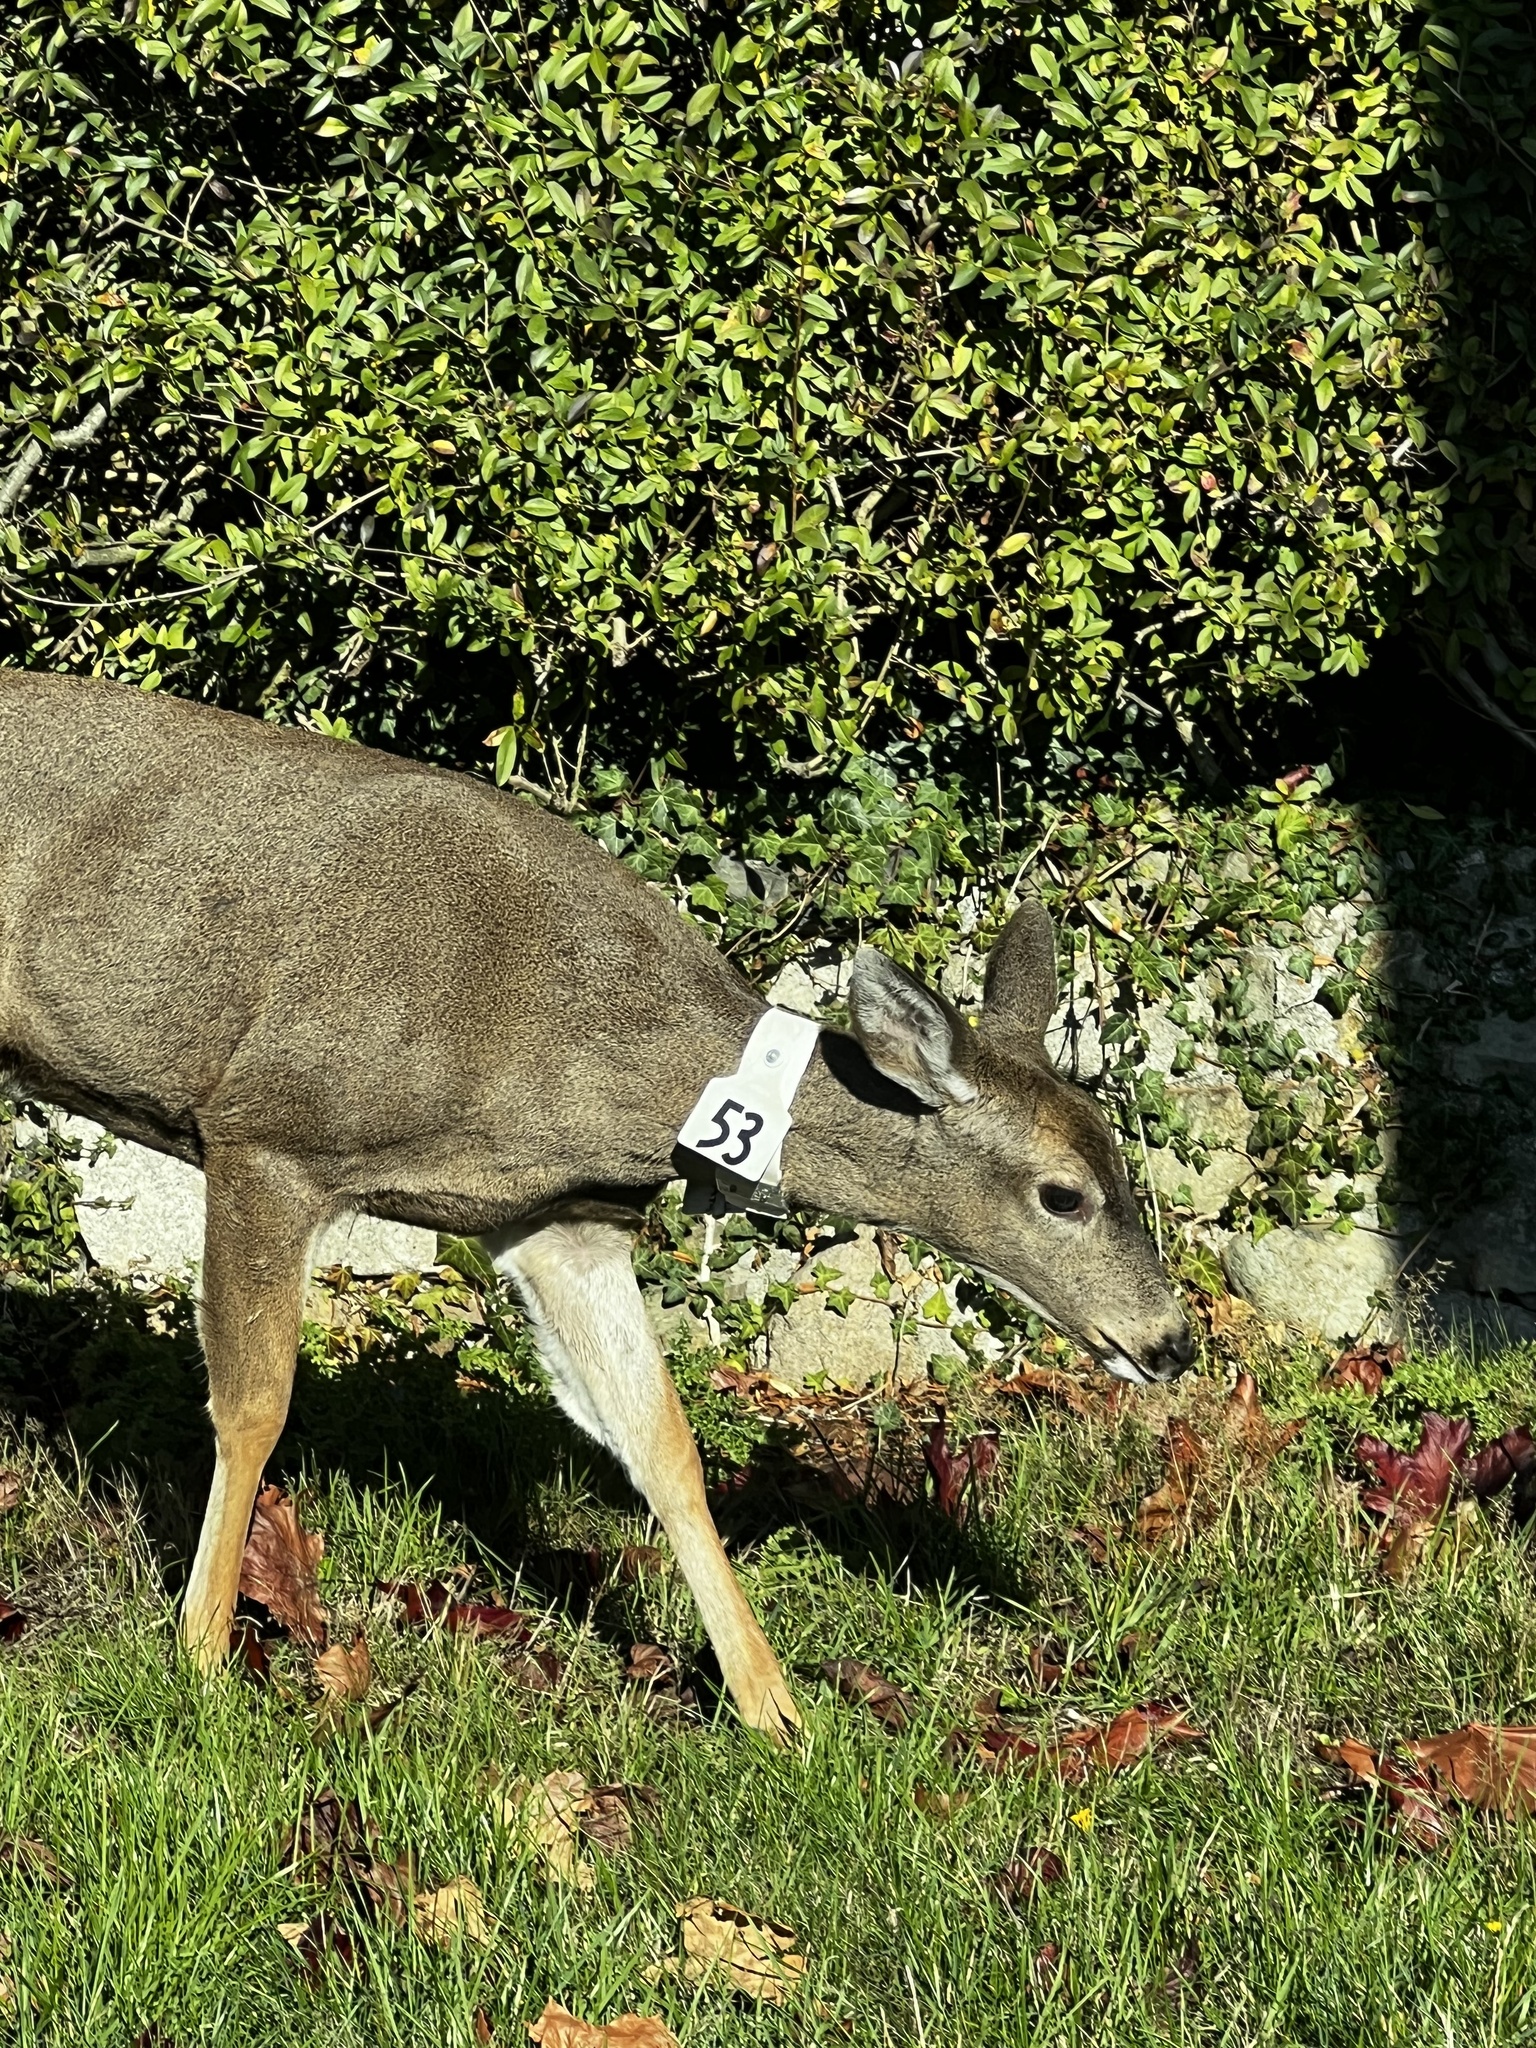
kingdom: Animalia
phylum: Chordata
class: Mammalia
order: Artiodactyla
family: Cervidae
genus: Odocoileus
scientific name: Odocoileus hemionus
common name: Mule deer
